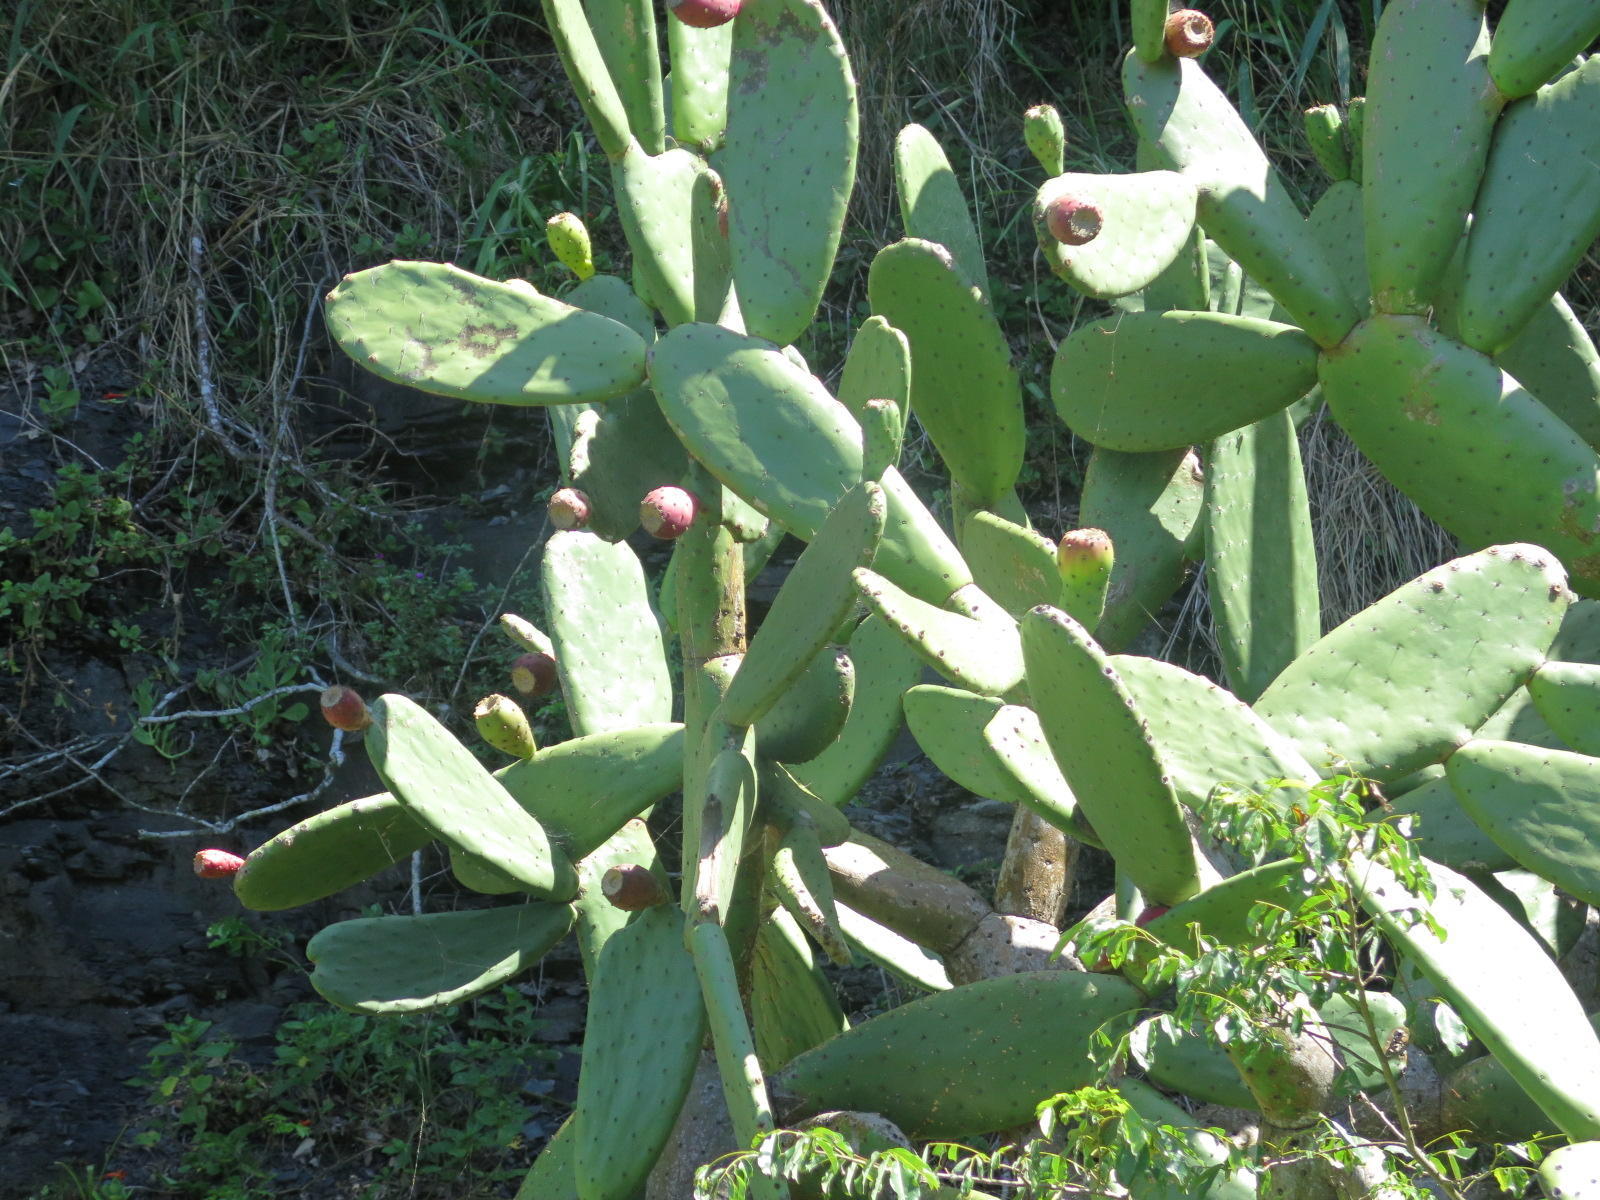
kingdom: Plantae
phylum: Tracheophyta
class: Magnoliopsida
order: Caryophyllales
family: Cactaceae
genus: Opuntia
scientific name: Opuntia ficus-indica
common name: Barbary fig
